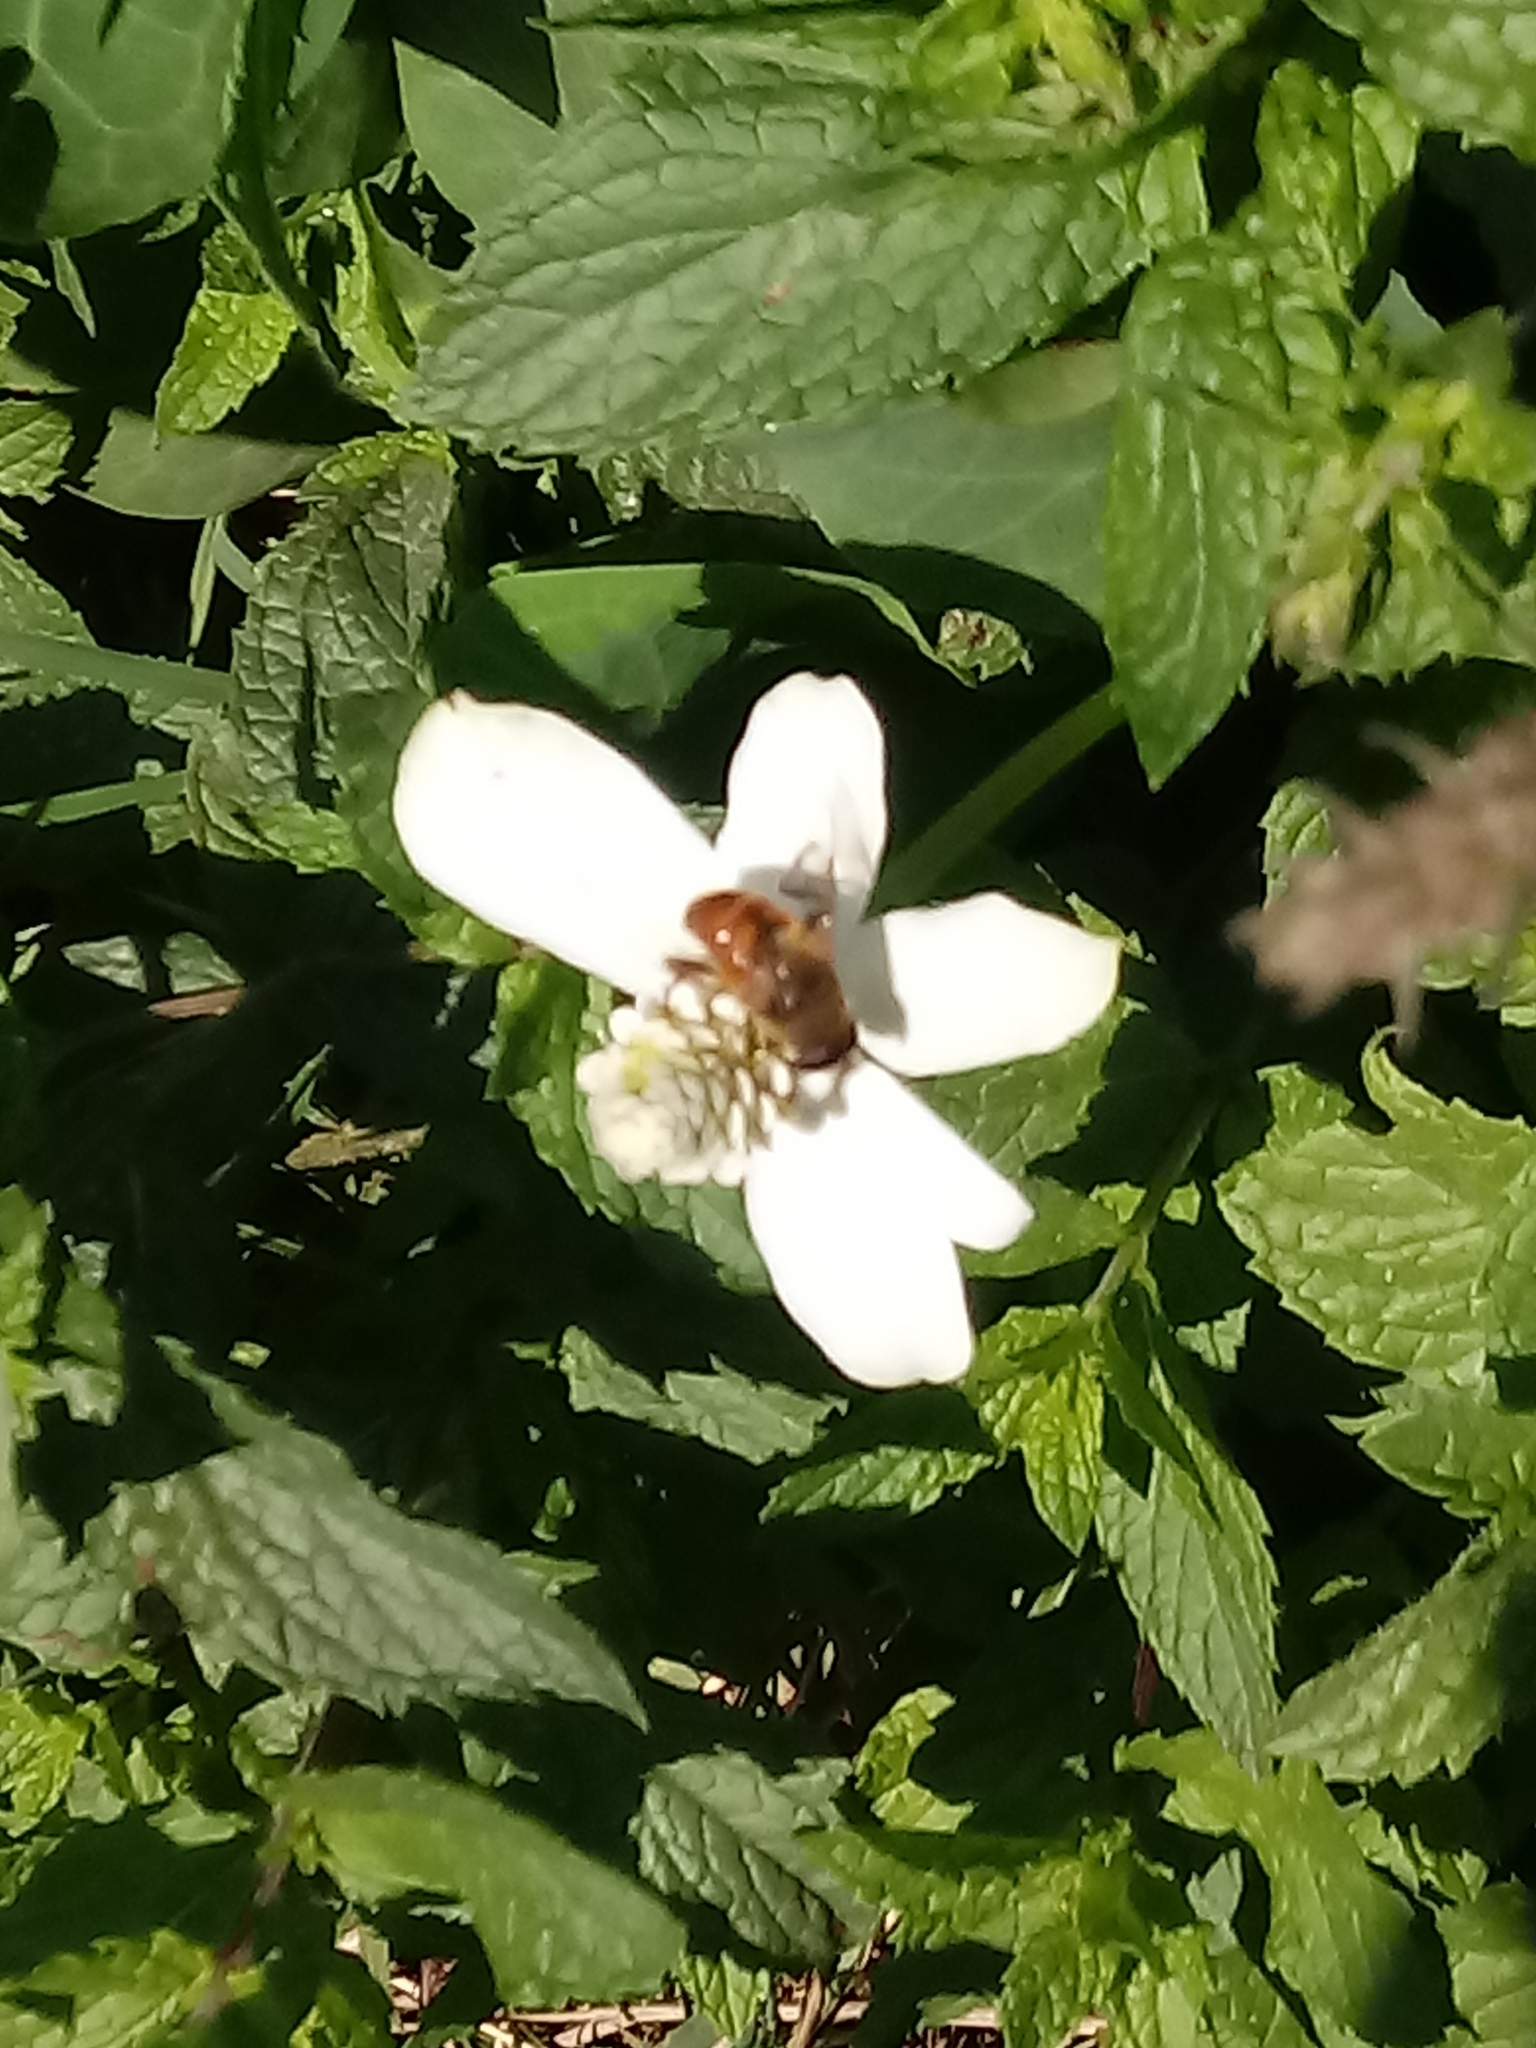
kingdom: Animalia
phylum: Arthropoda
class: Insecta
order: Diptera
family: Syrphidae
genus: Eristalis
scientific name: Eristalis tenax
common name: Drone fly
